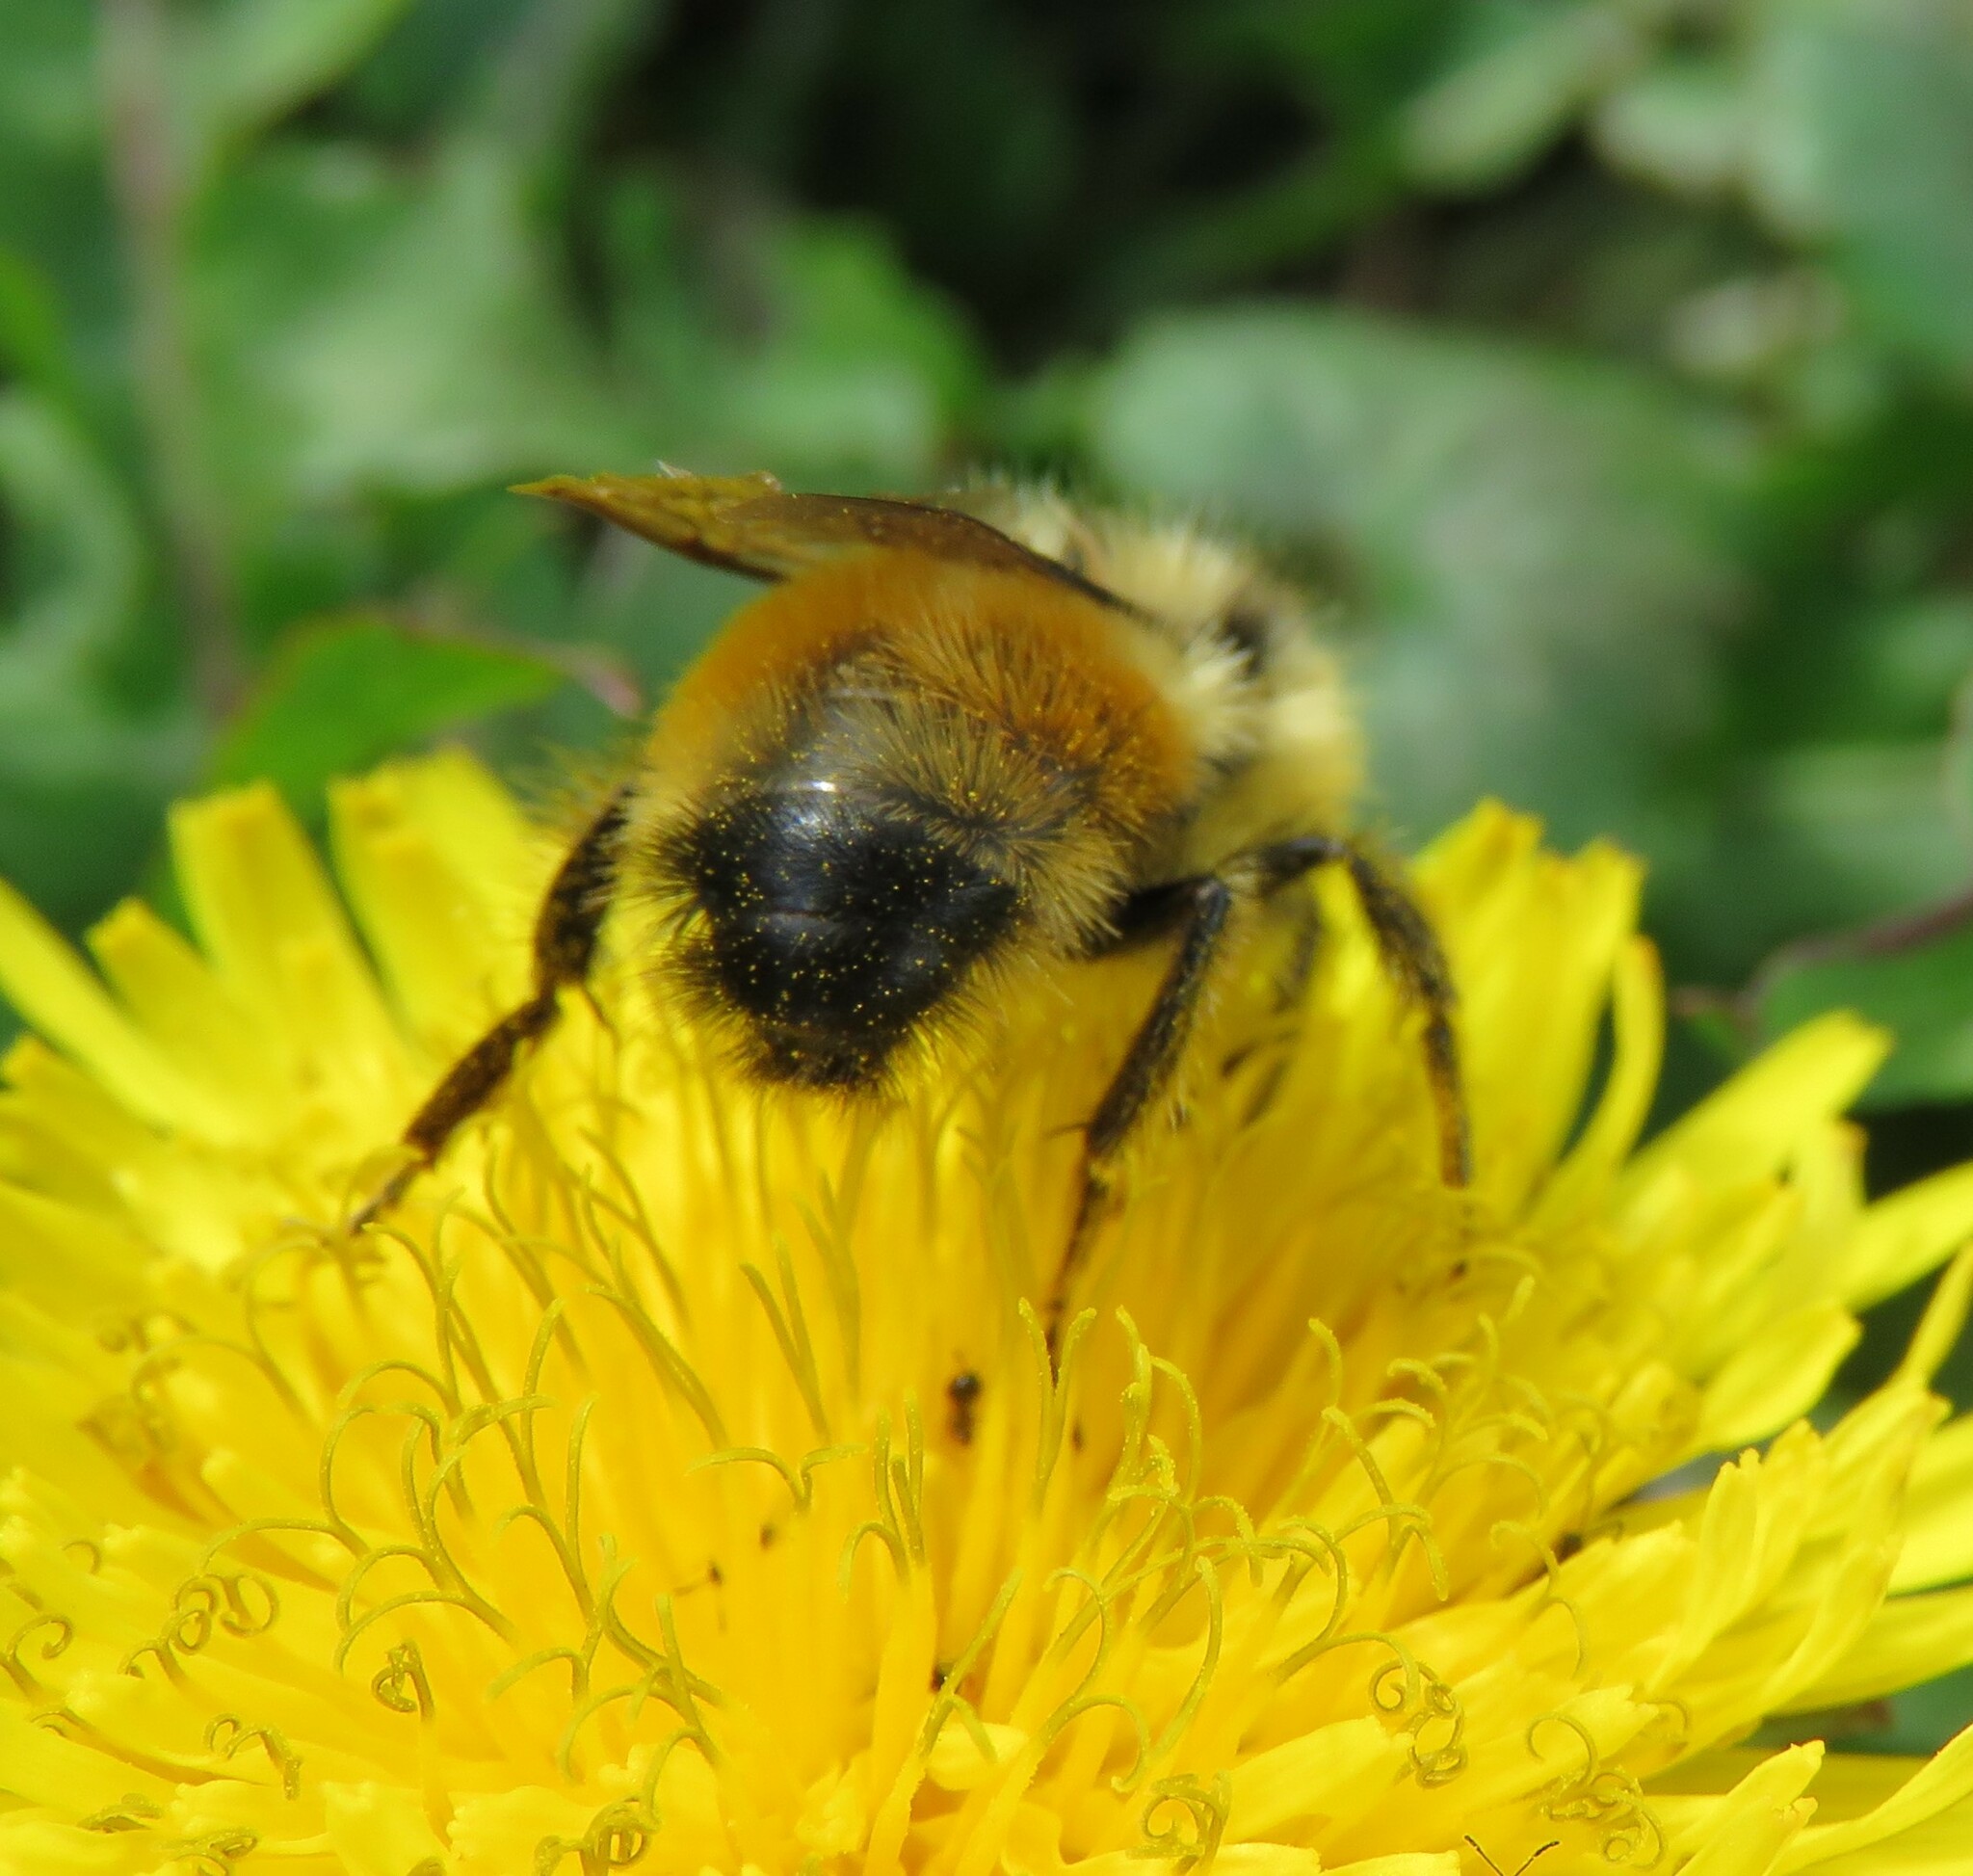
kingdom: Animalia
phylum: Arthropoda
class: Insecta
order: Hymenoptera
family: Apidae
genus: Bombus
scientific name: Bombus ternarius
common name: Tri-colored bumble bee
